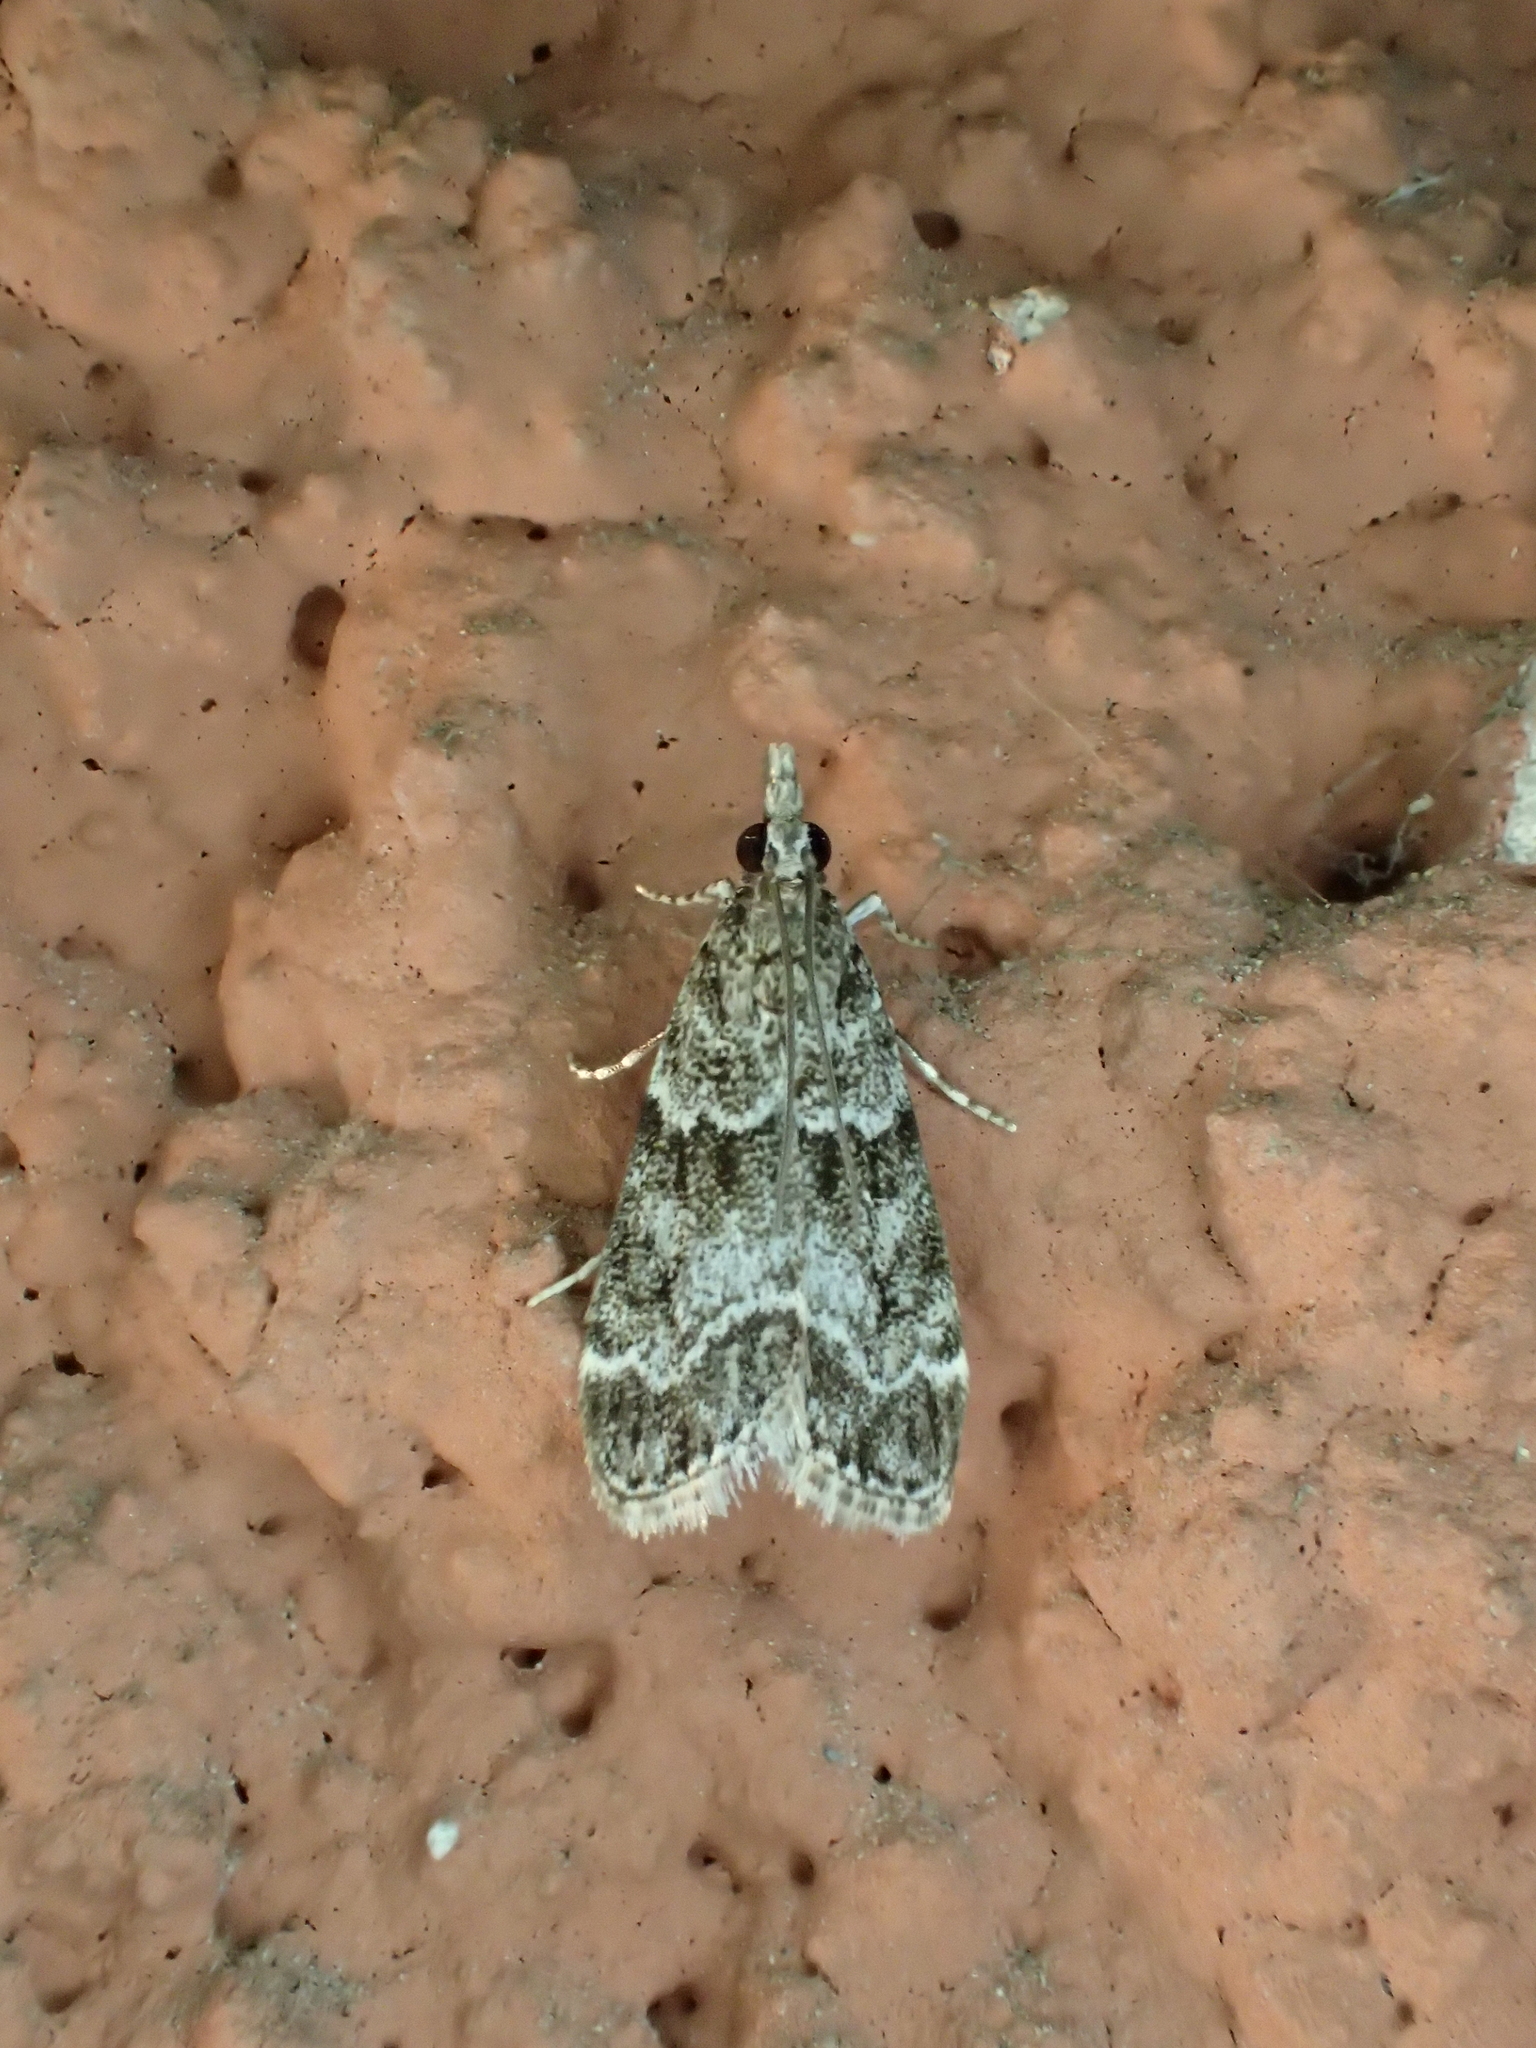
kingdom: Animalia
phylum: Arthropoda
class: Insecta
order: Lepidoptera
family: Crambidae
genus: Eudonia
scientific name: Eudonia mercurella
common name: Small grey
